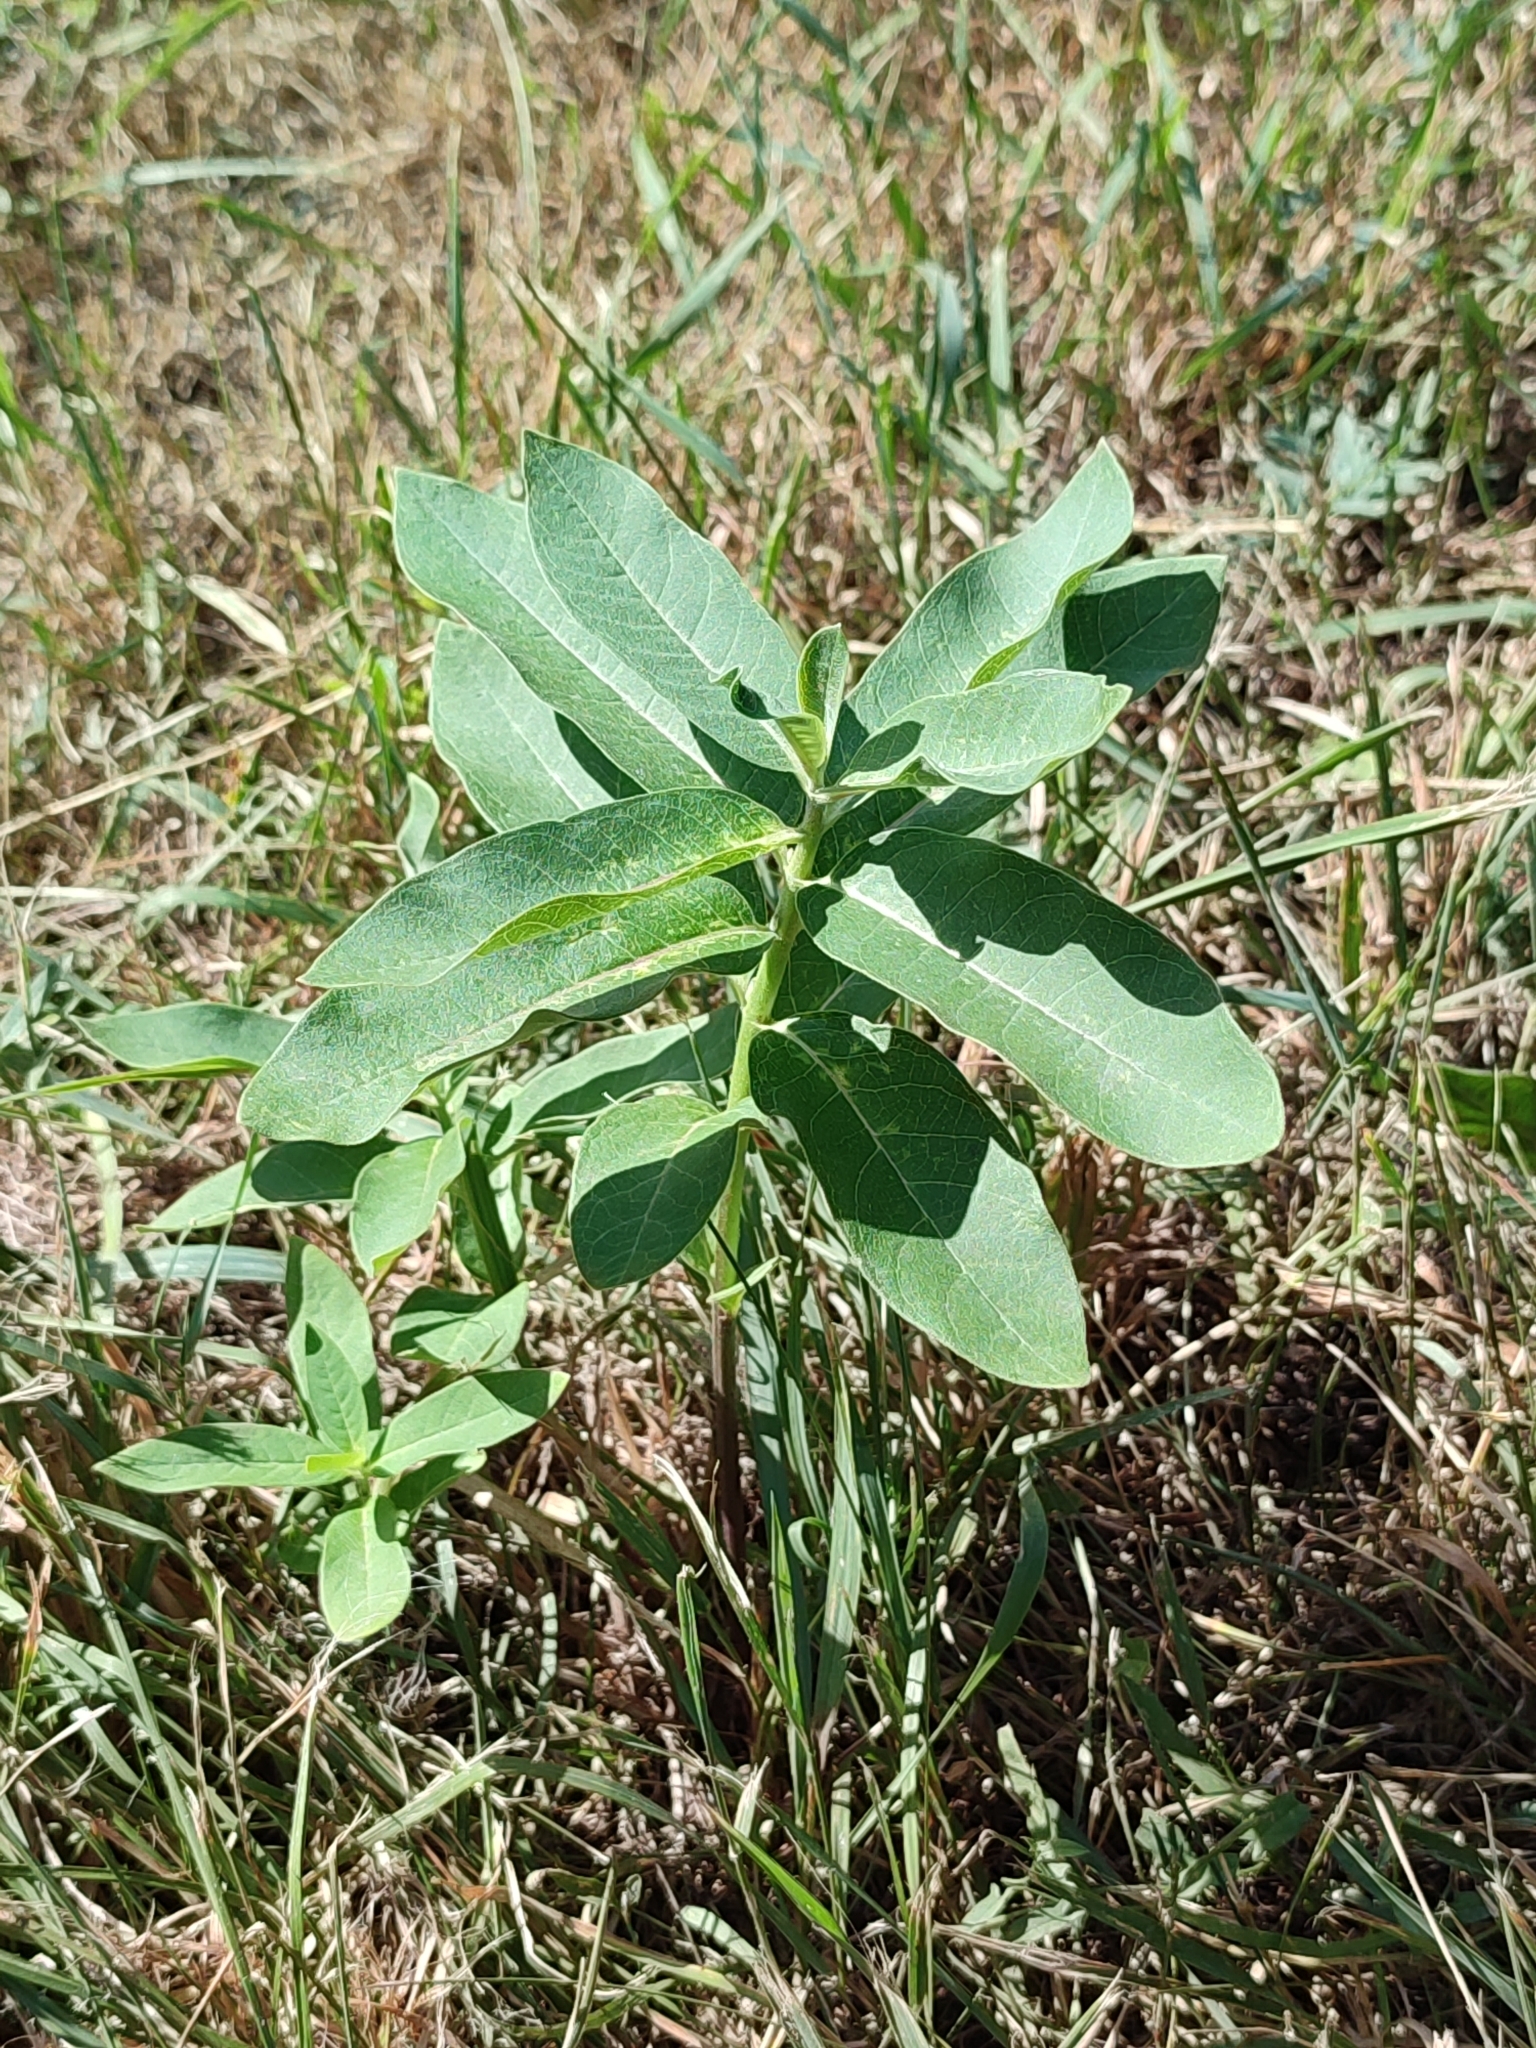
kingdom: Plantae
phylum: Tracheophyta
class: Magnoliopsida
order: Gentianales
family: Apocynaceae
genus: Asclepias
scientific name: Asclepias syriaca
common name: Common milkweed
